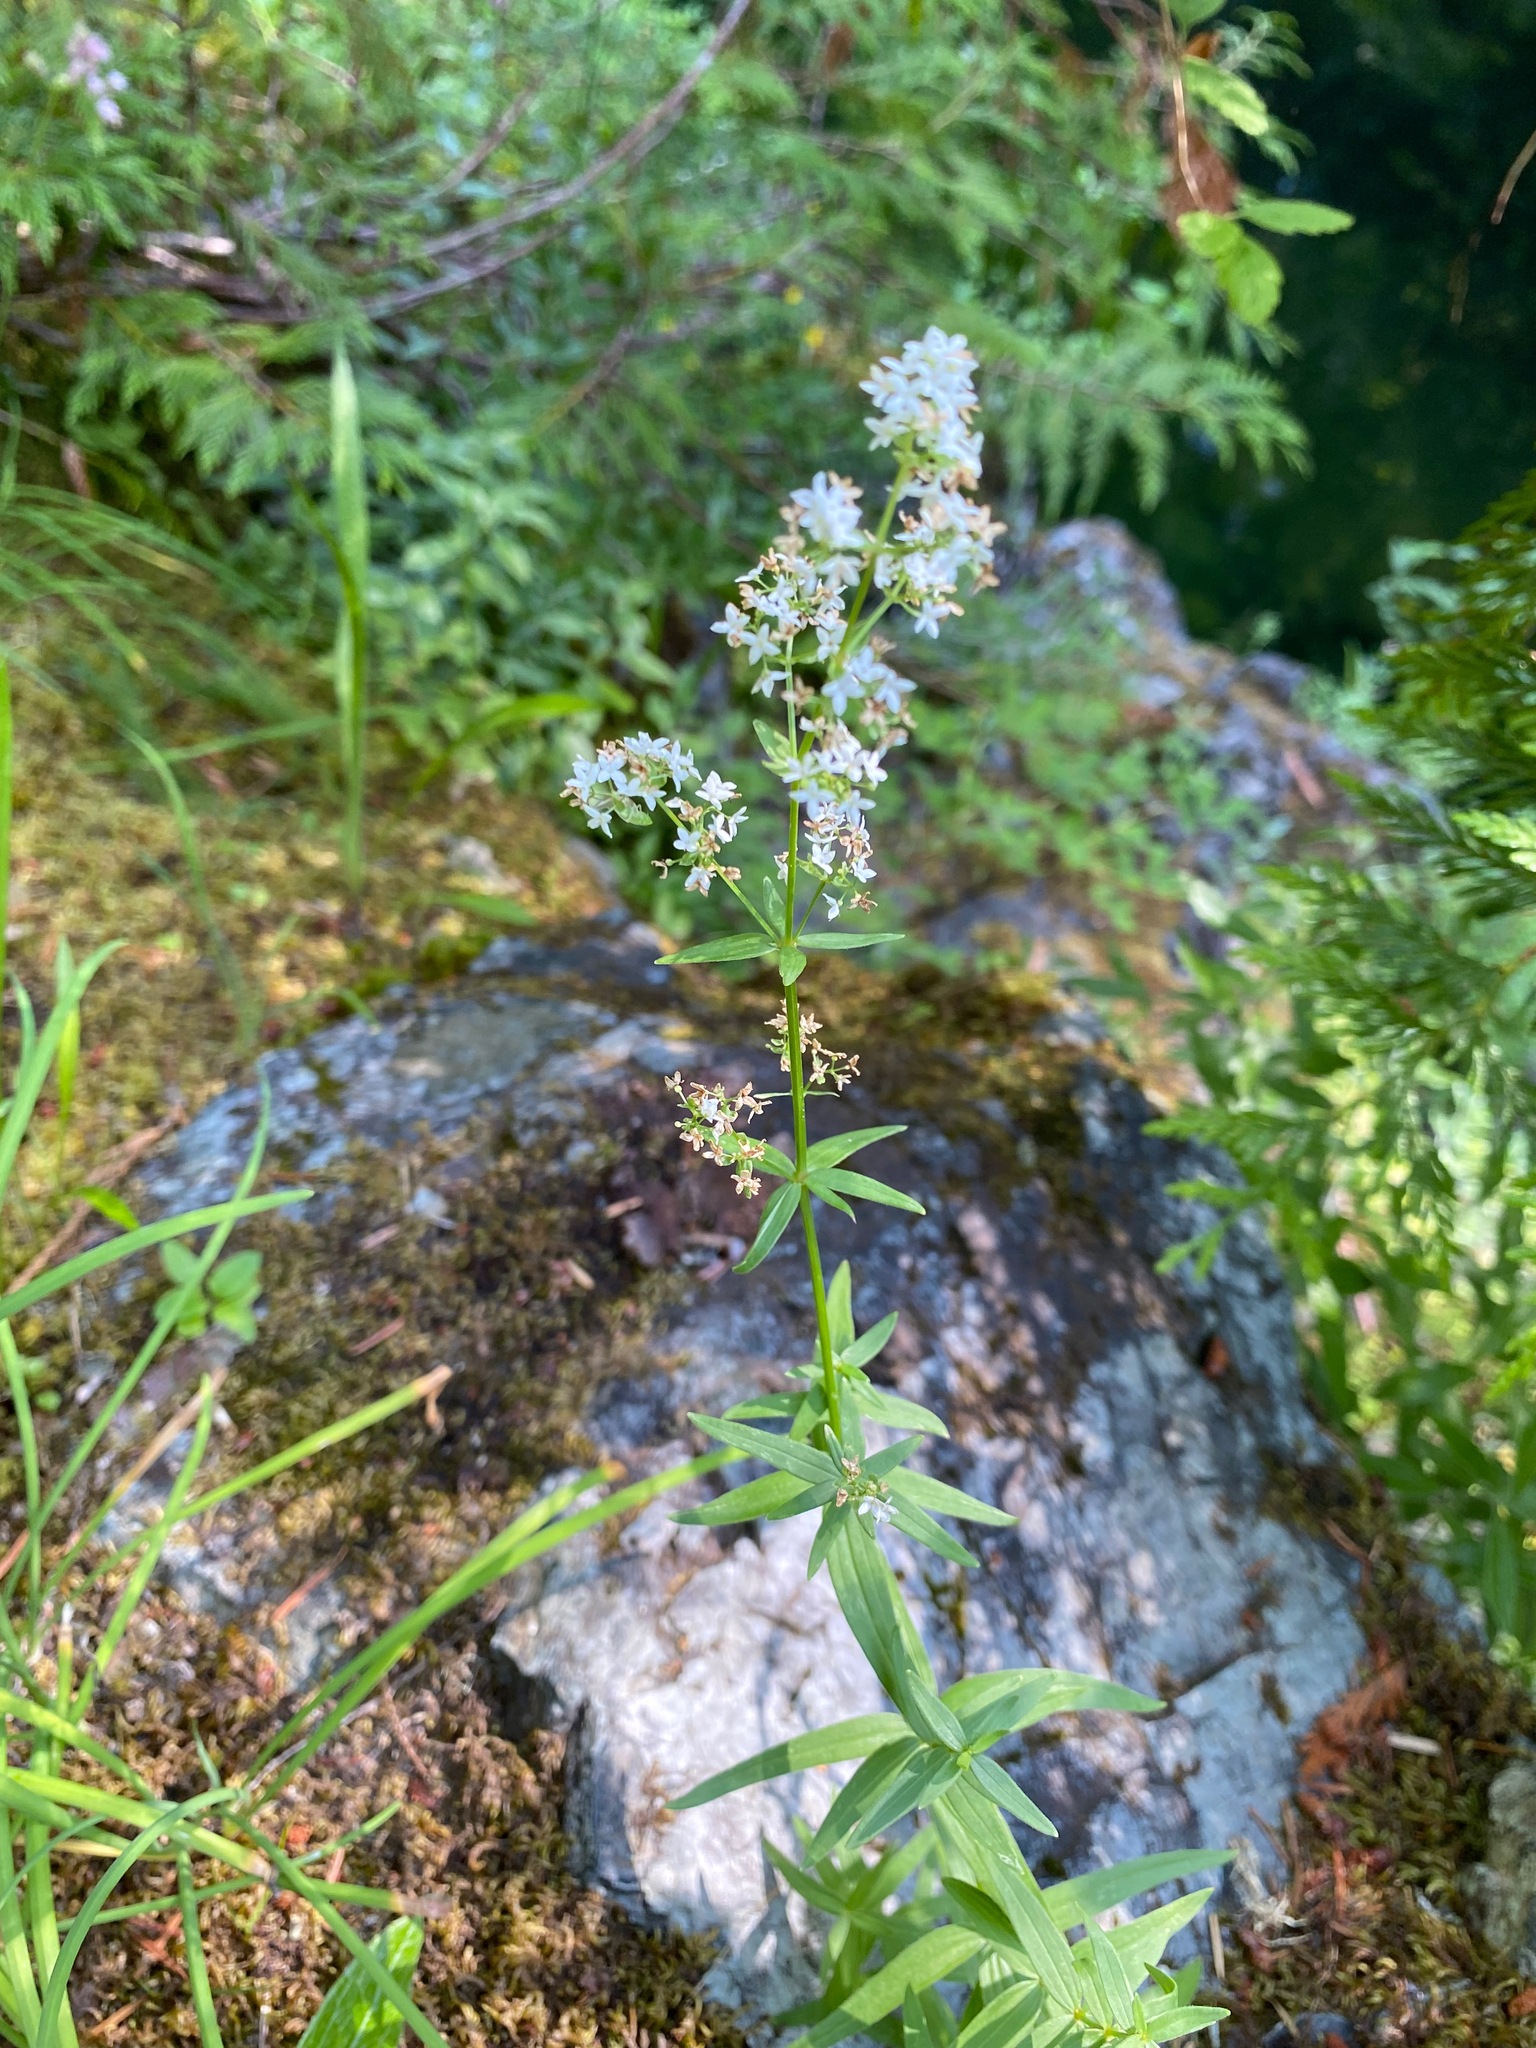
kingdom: Plantae
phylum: Tracheophyta
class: Magnoliopsida
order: Gentianales
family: Rubiaceae
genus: Galium
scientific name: Galium boreale
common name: Northern bedstraw
